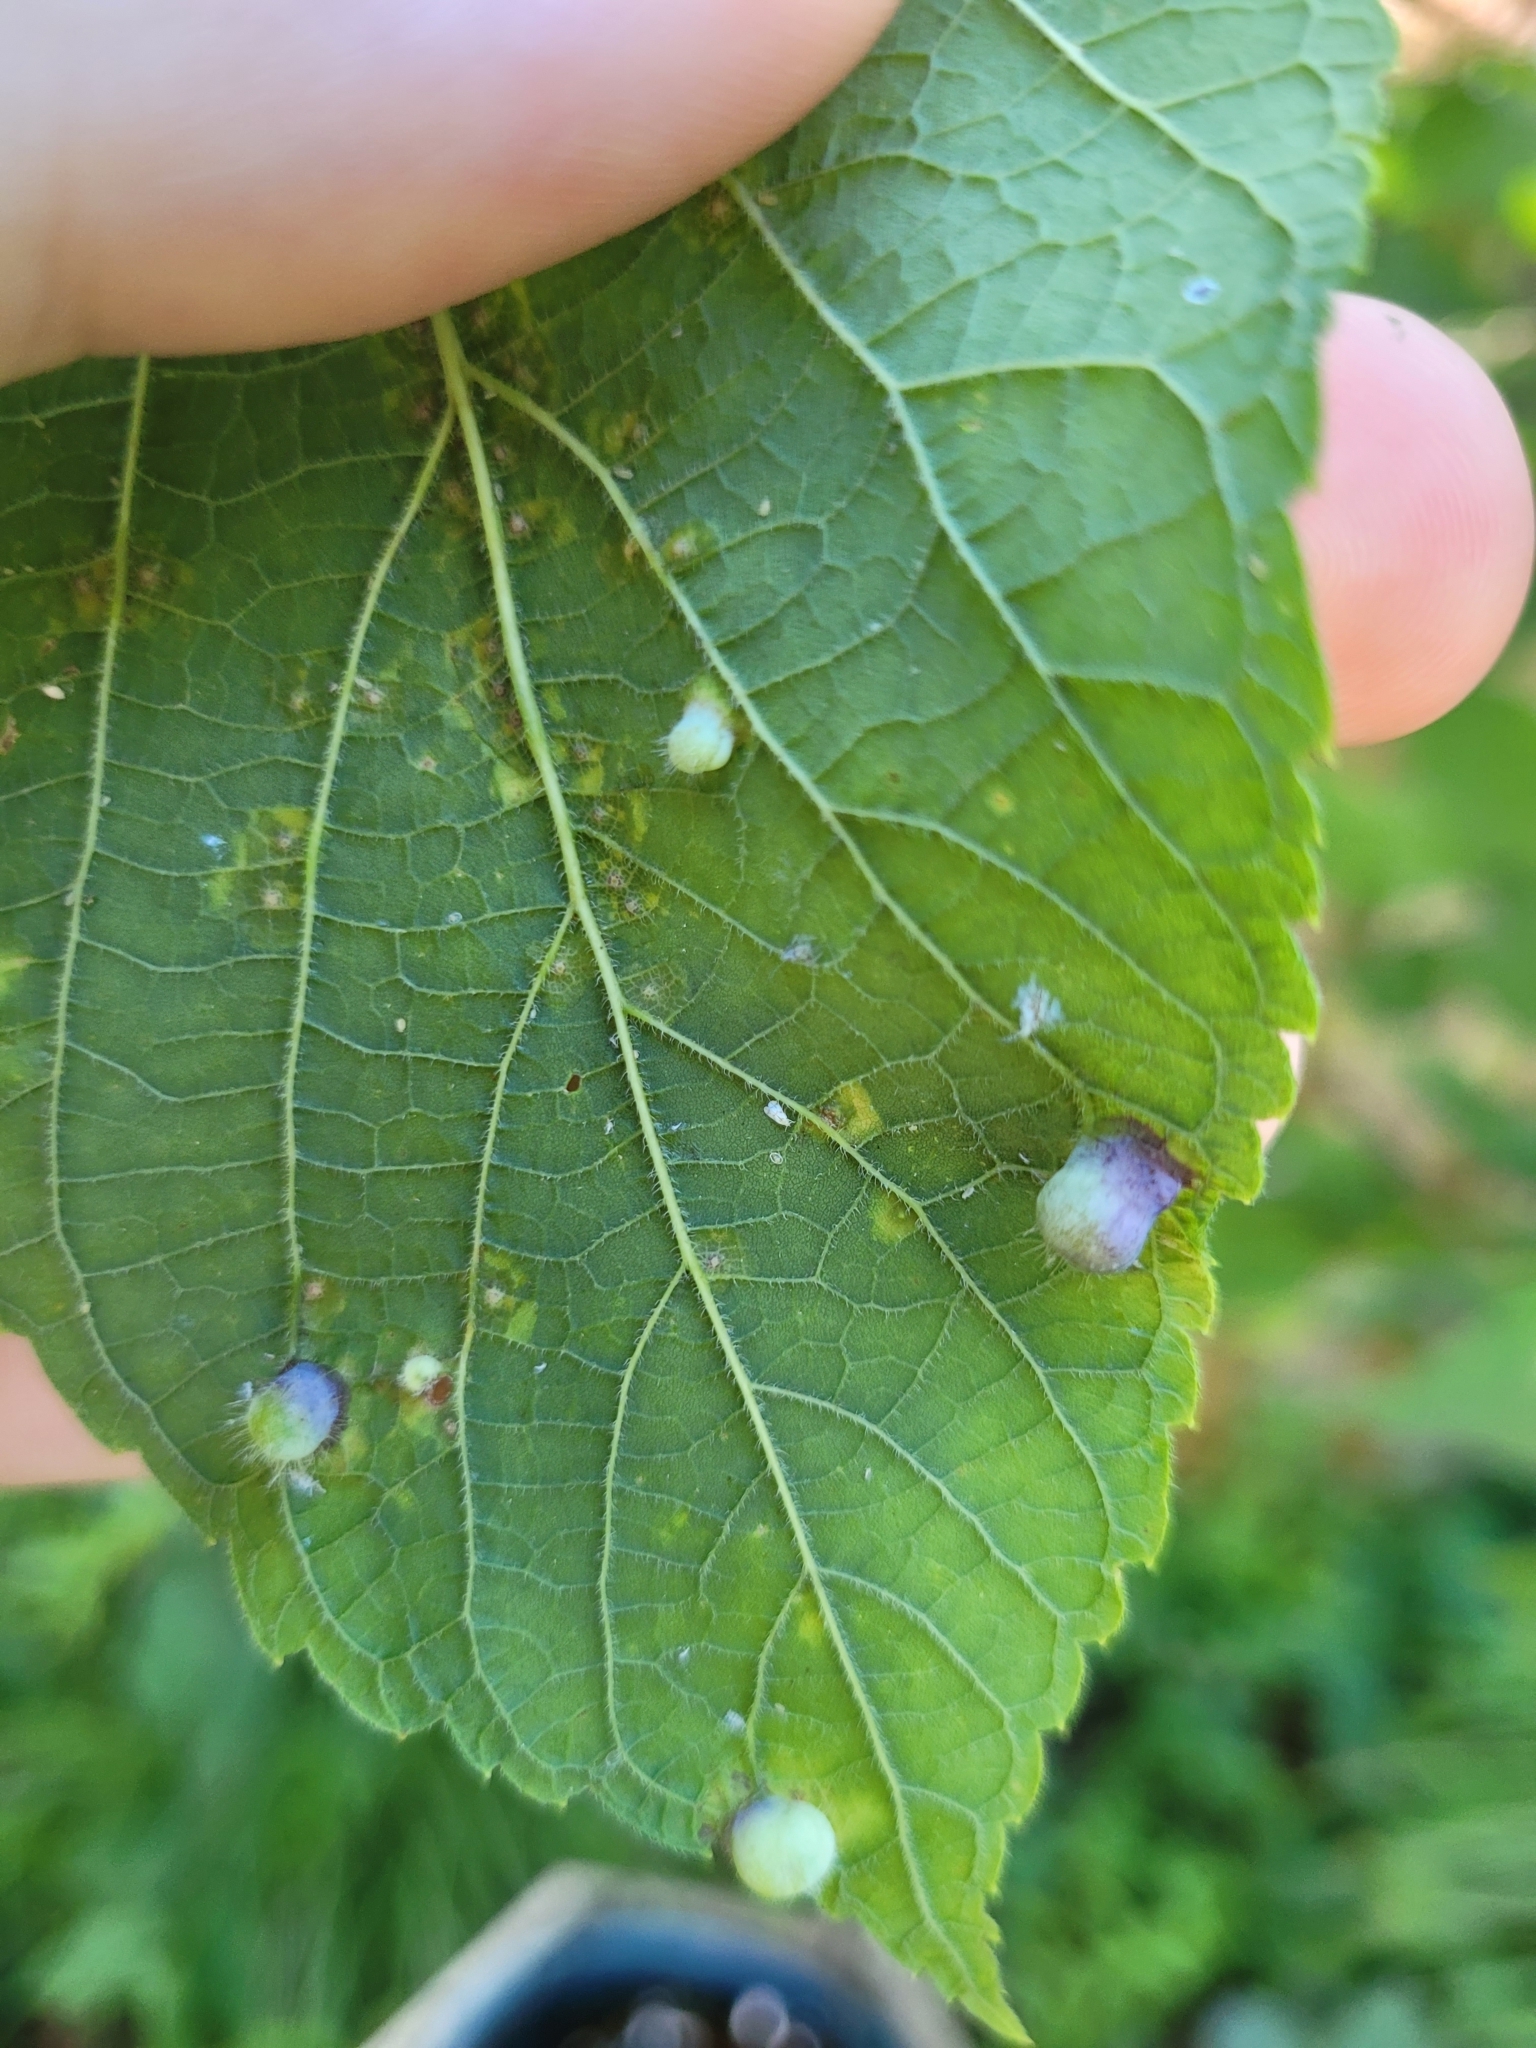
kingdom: Animalia
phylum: Arthropoda
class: Insecta
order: Hemiptera
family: Aphalaridae
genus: Pachypsylla
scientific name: Pachypsylla celtidismamma
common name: Hackberry nipplegall psyllid
